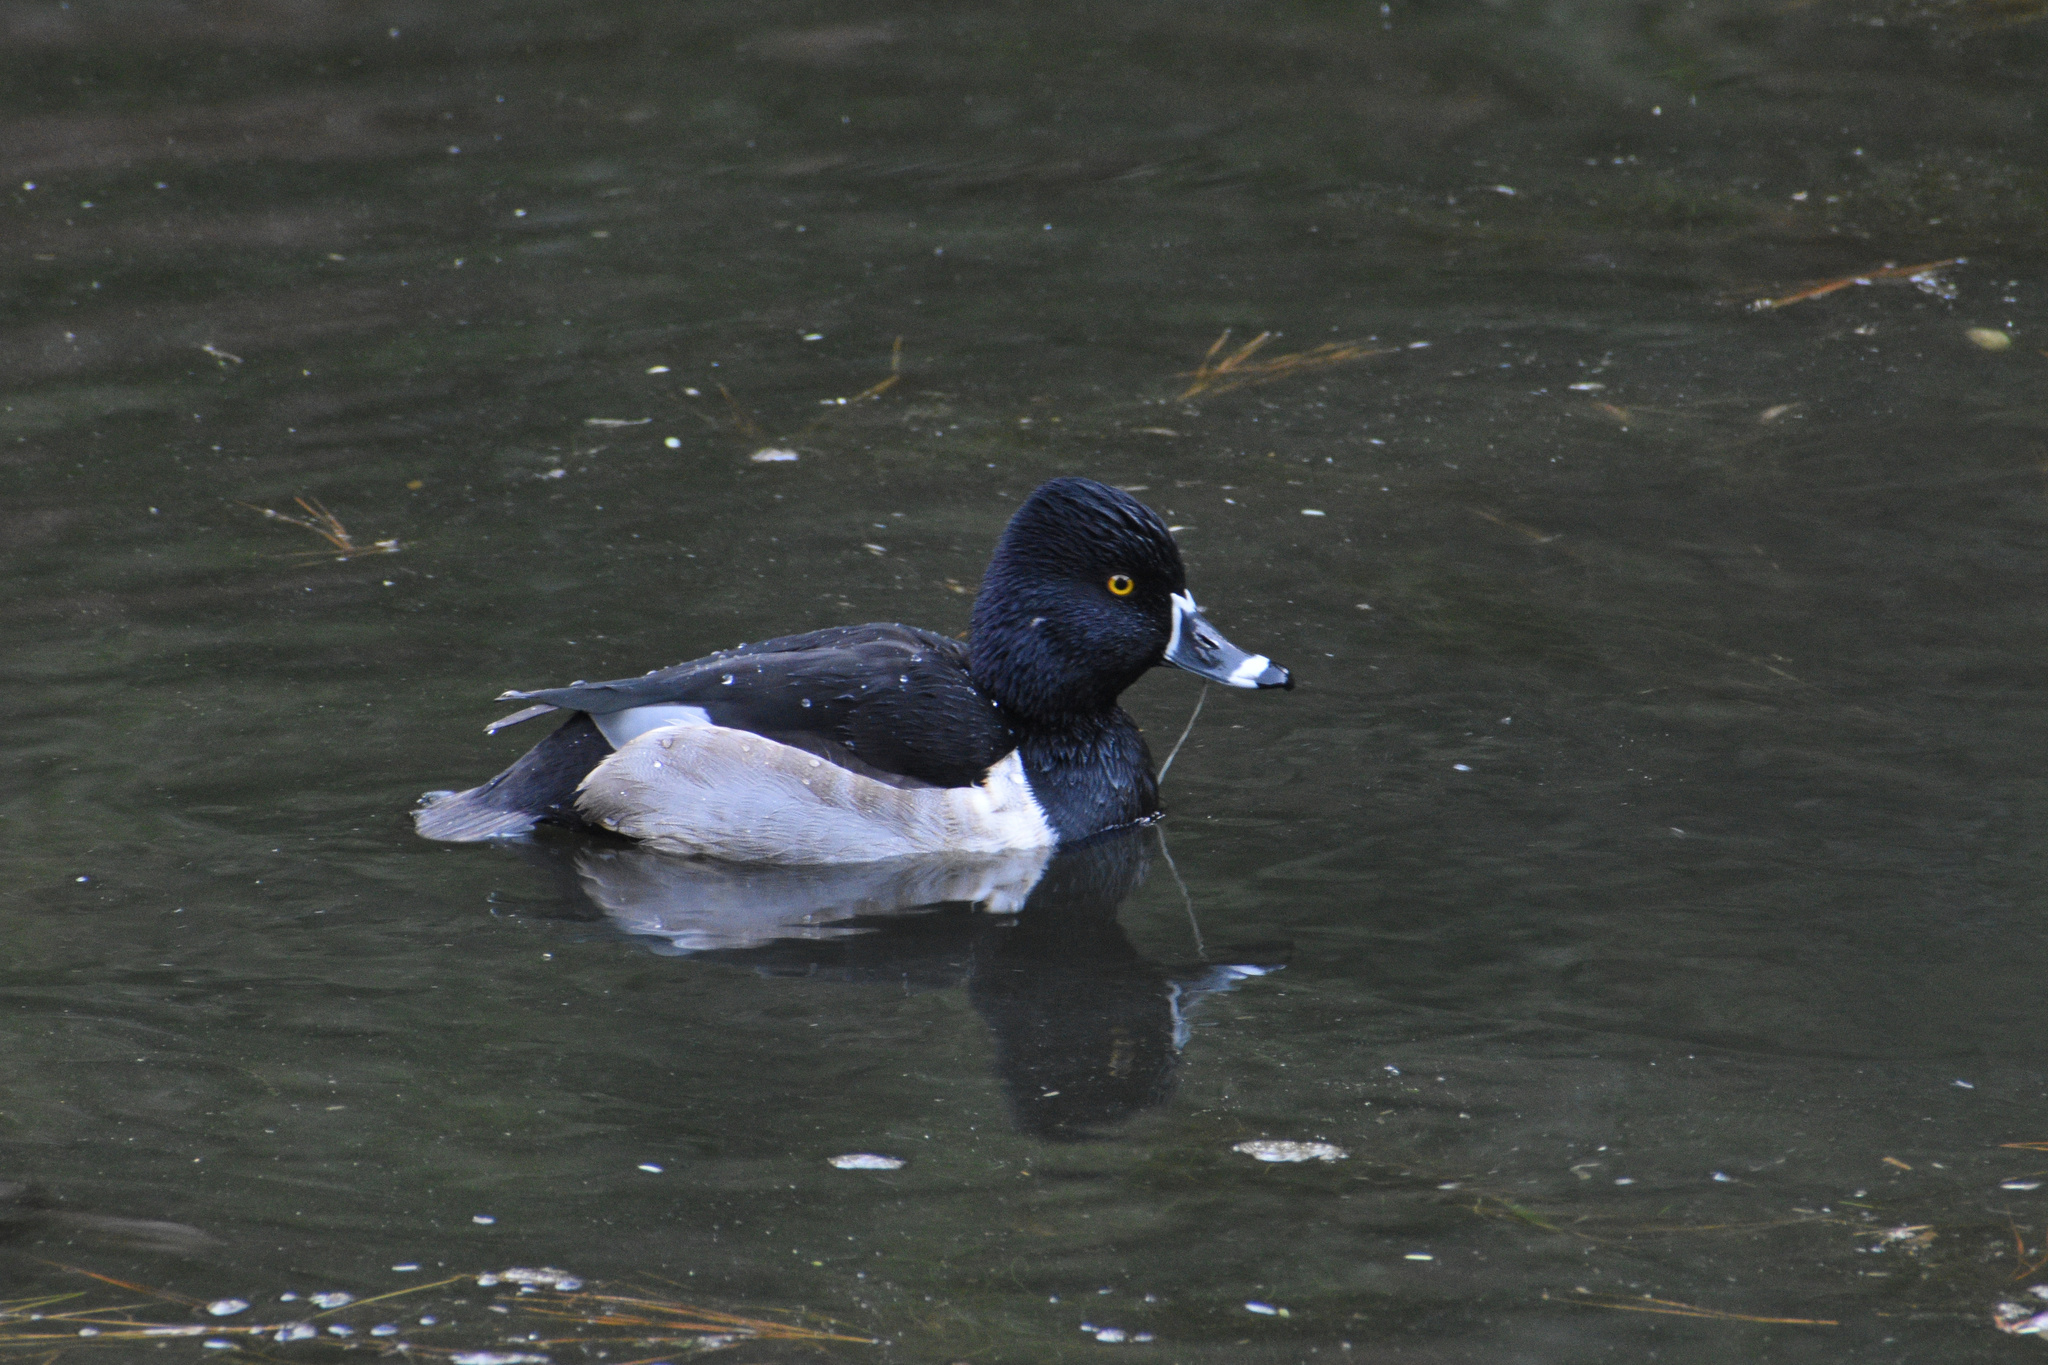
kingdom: Animalia
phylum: Chordata
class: Aves
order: Anseriformes
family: Anatidae
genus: Aythya
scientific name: Aythya collaris
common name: Ring-necked duck
